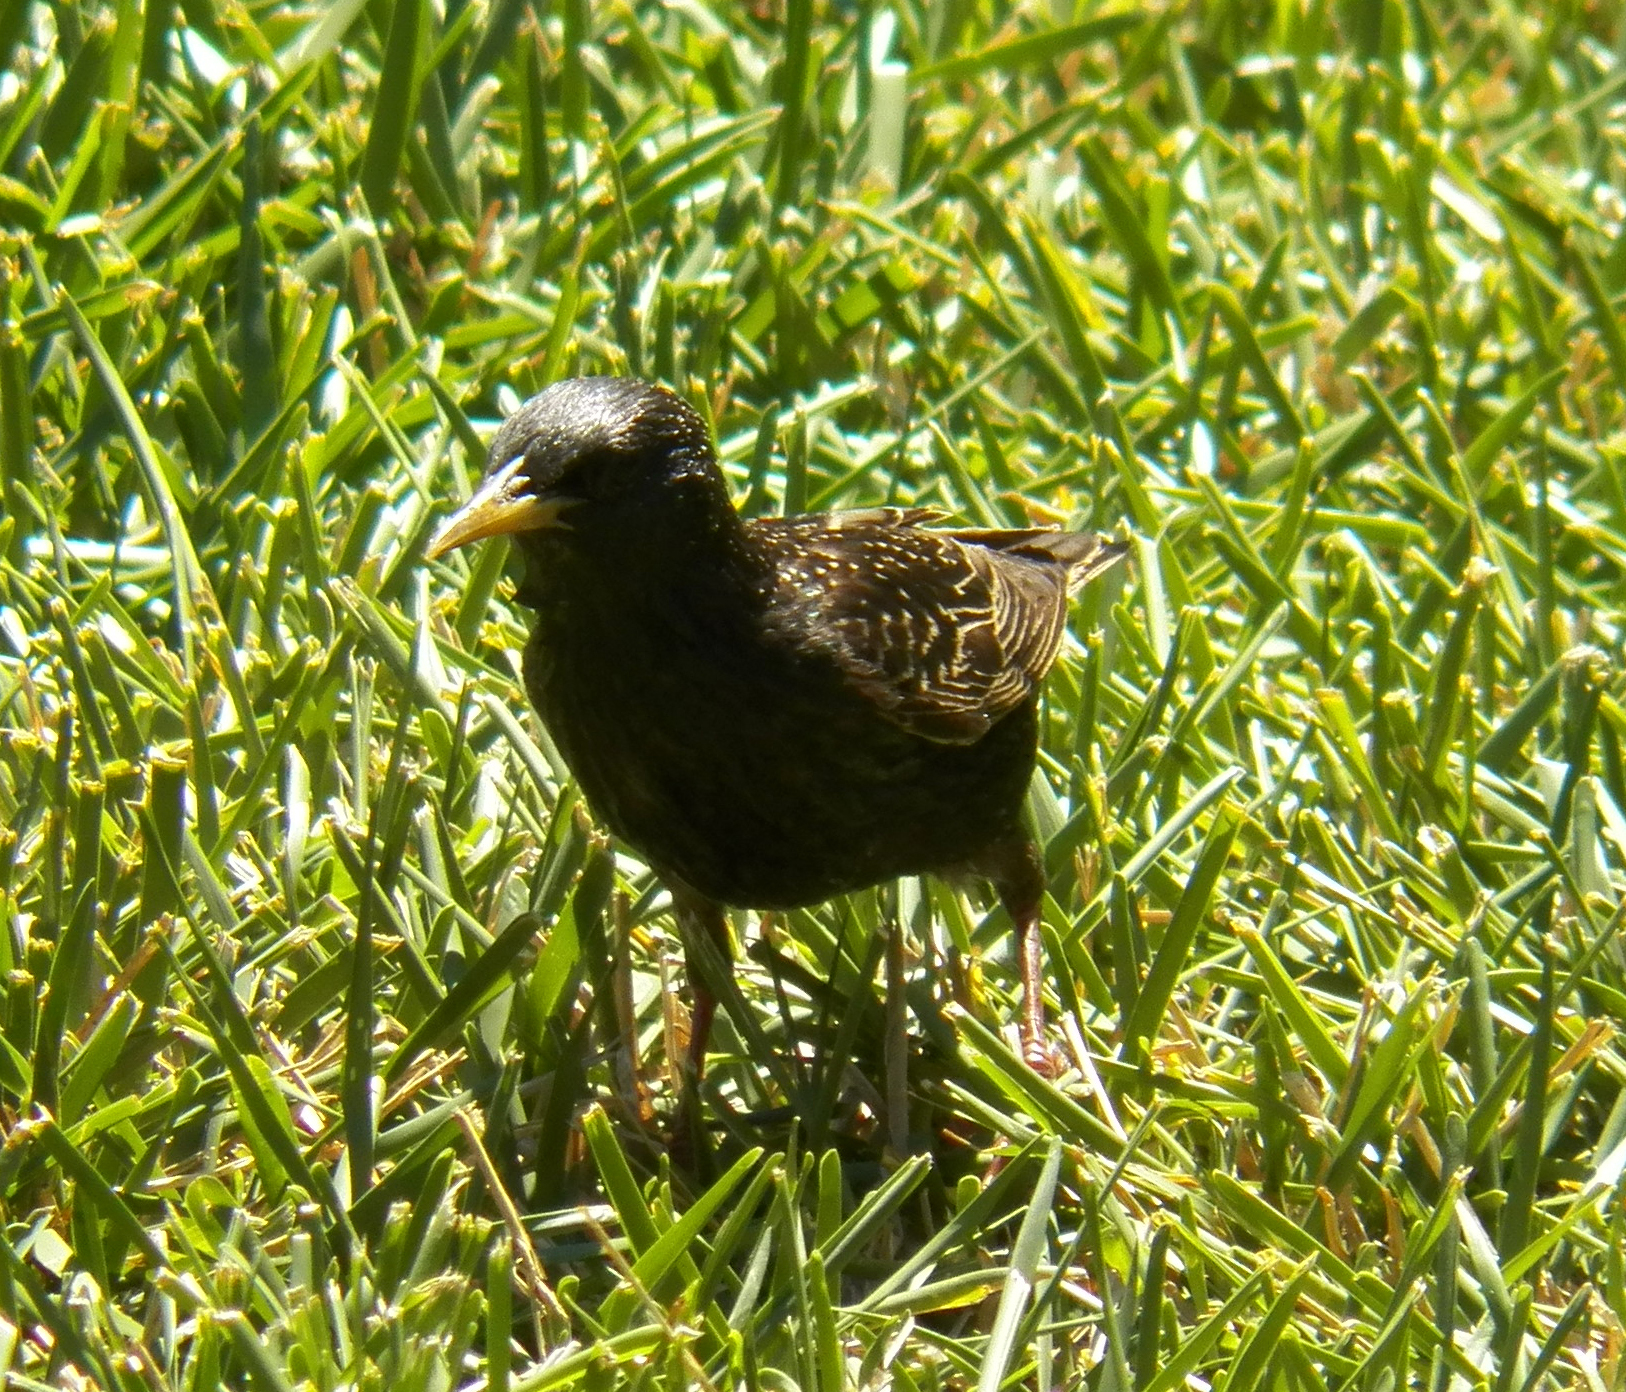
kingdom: Animalia
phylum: Chordata
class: Aves
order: Passeriformes
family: Sturnidae
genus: Sturnus
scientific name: Sturnus vulgaris
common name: Common starling
